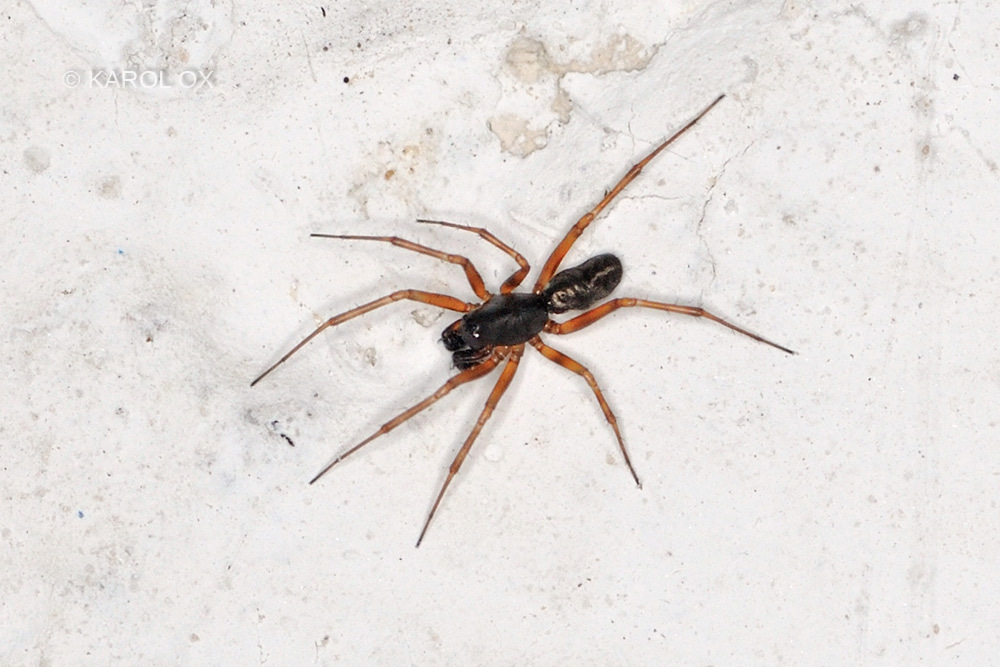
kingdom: Animalia
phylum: Arthropoda
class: Arachnida
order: Araneae
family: Linyphiidae
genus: Neriene
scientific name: Neriene clathrata
